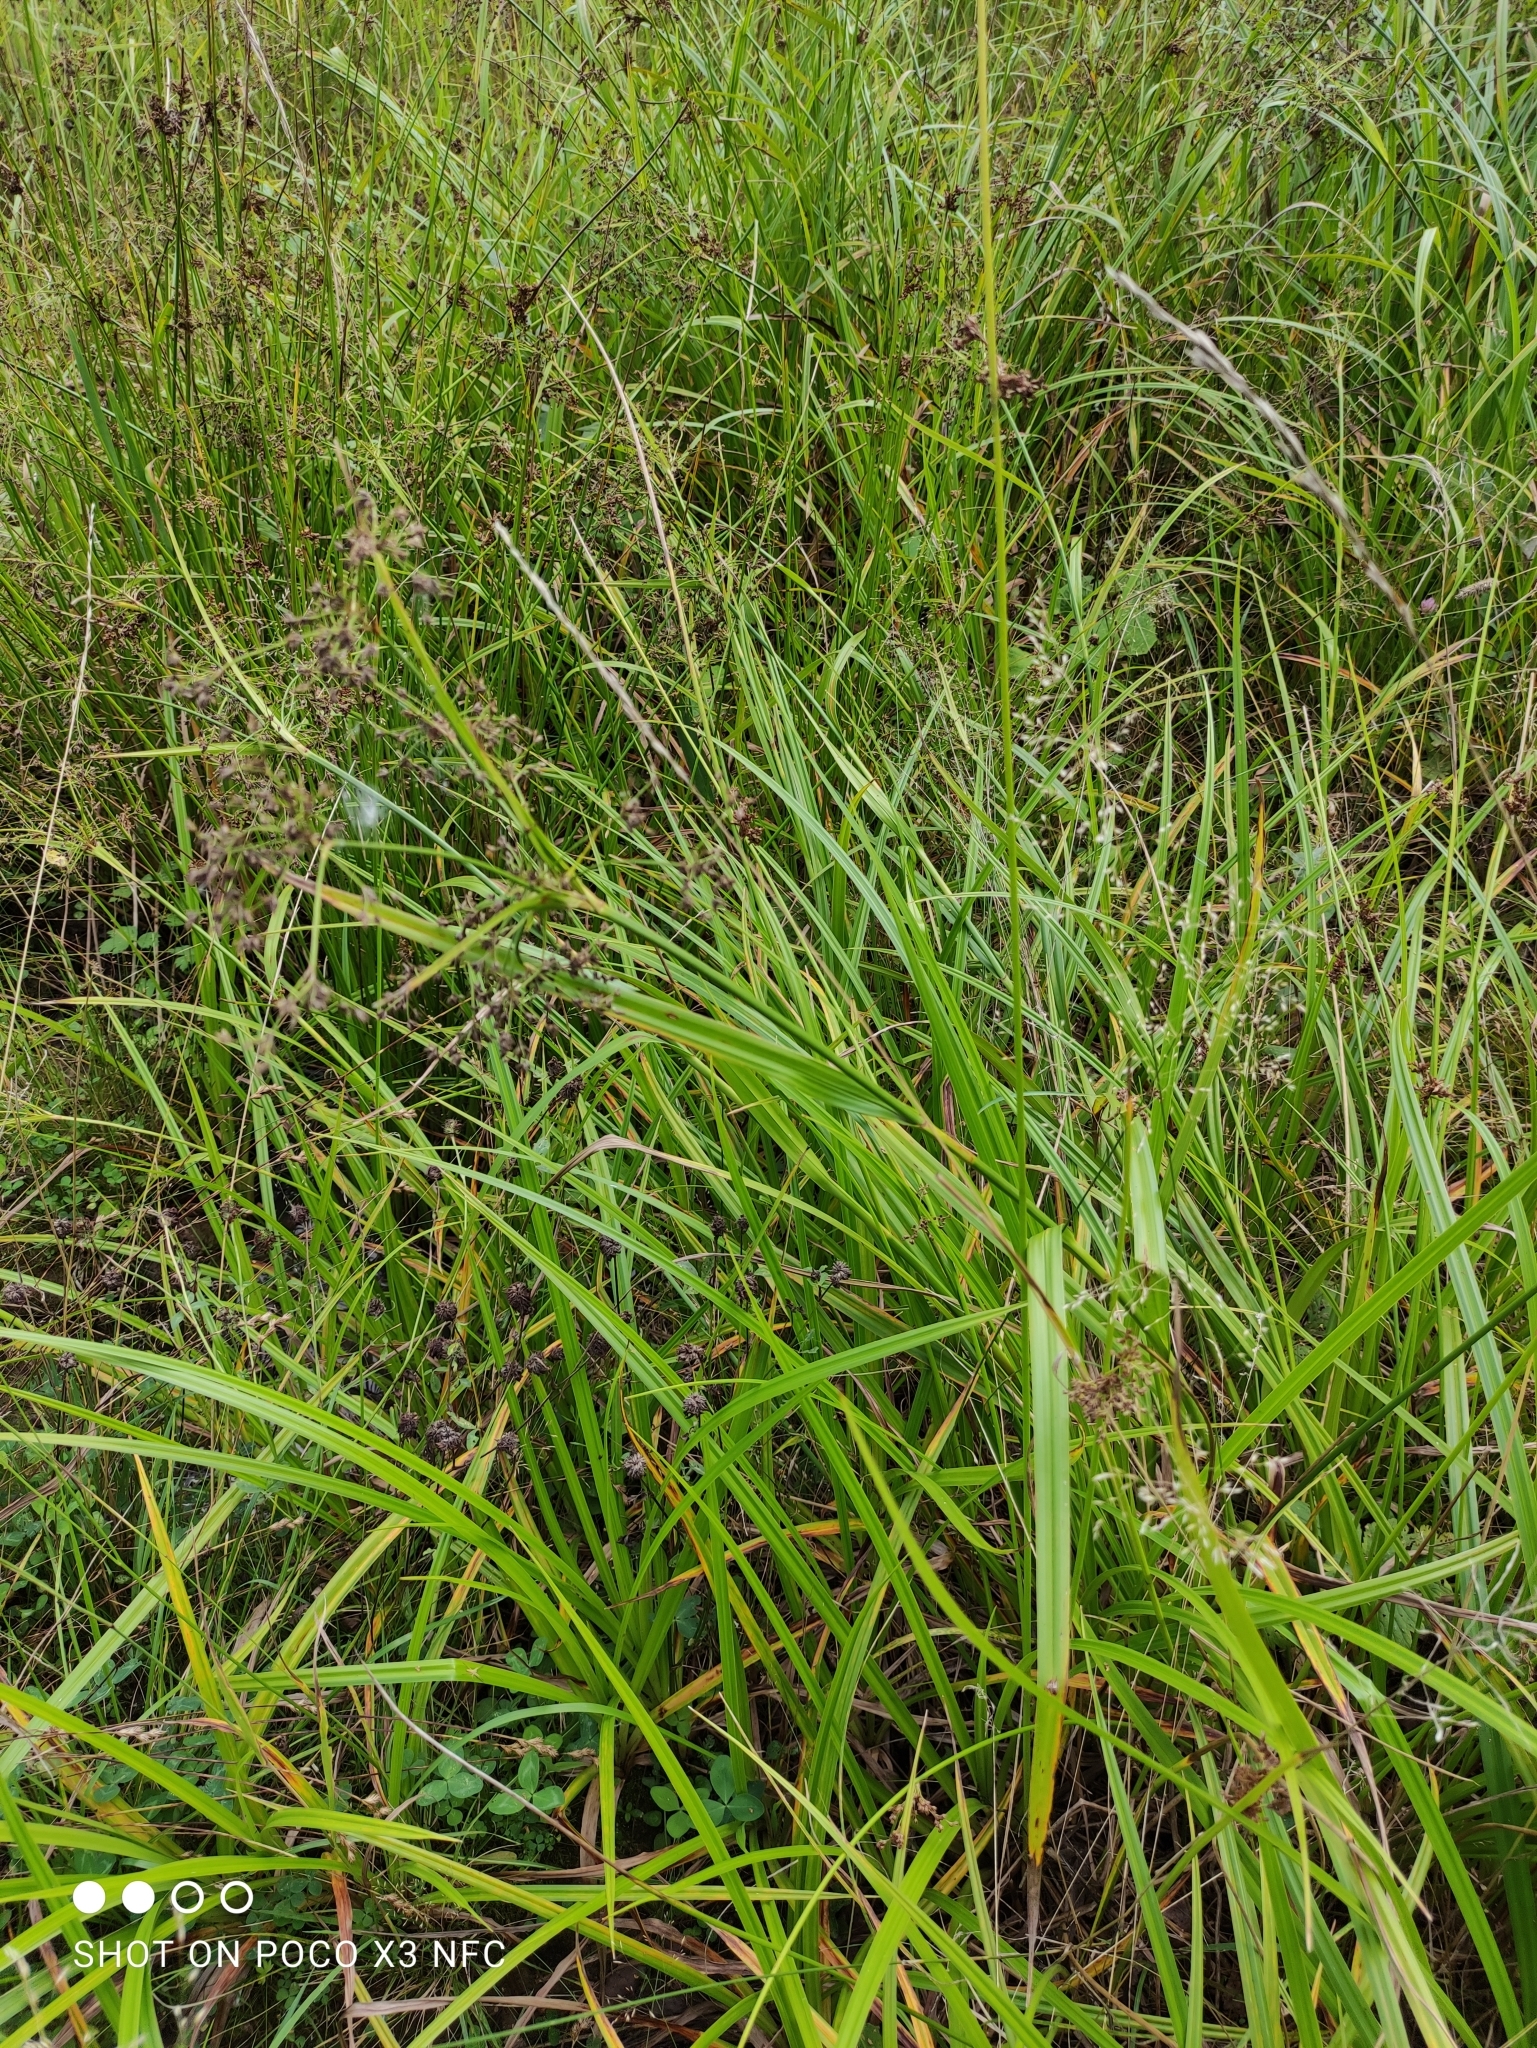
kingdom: Plantae
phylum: Tracheophyta
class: Liliopsida
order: Poales
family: Cyperaceae
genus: Scirpus
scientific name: Scirpus sylvaticus
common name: Wood club-rush
